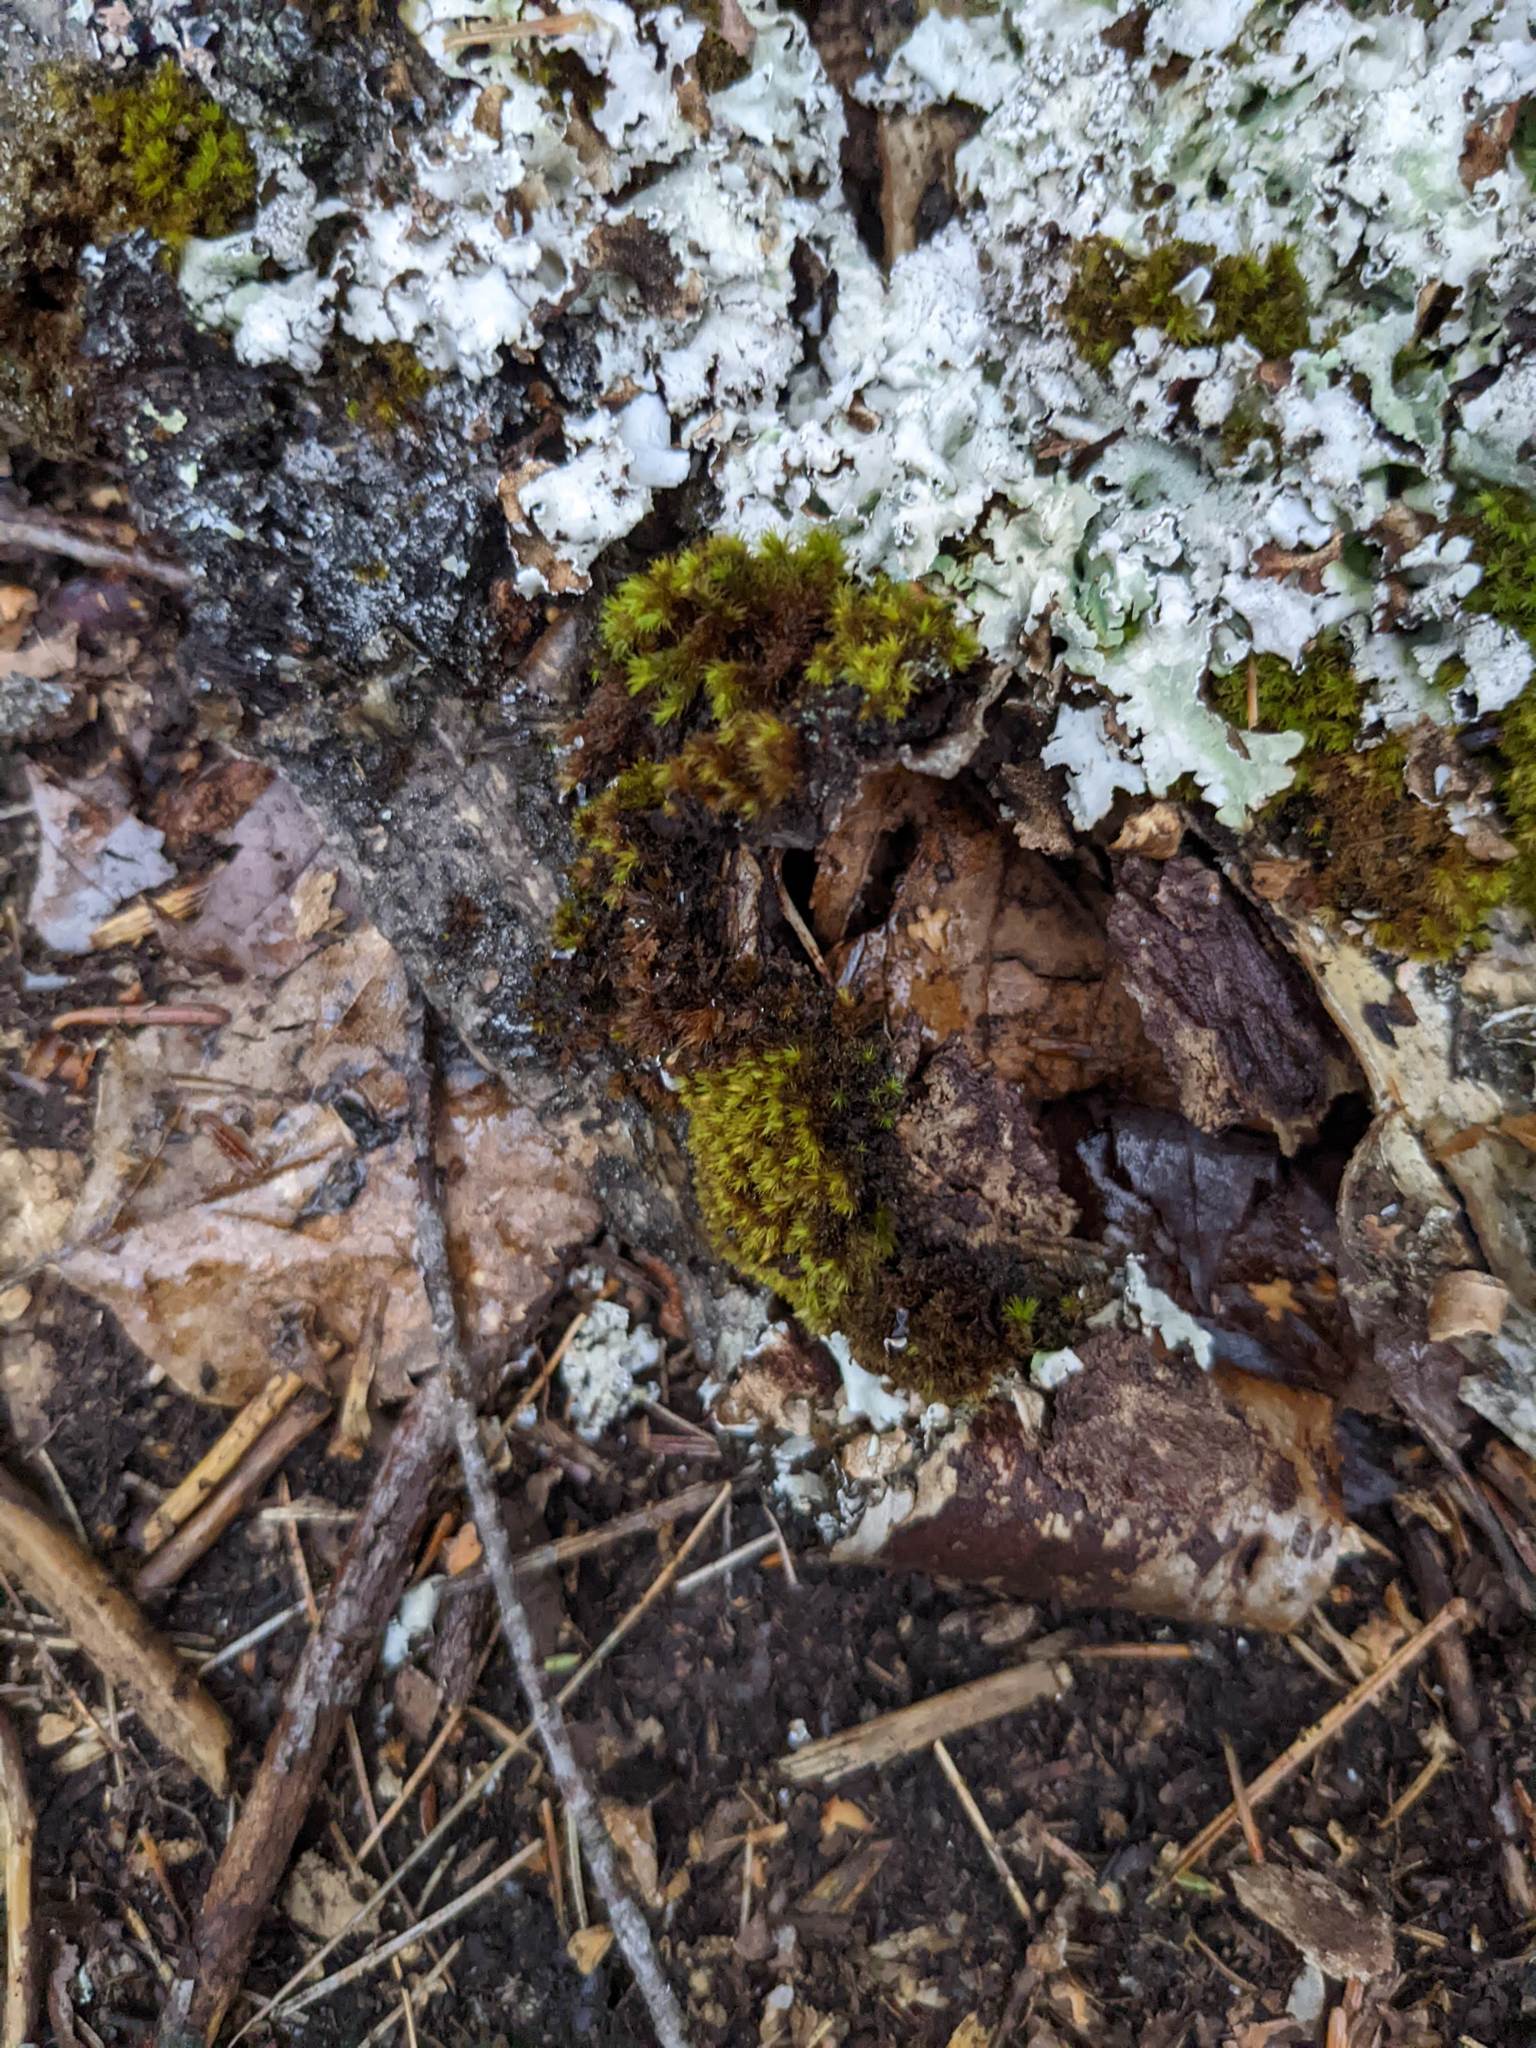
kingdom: Plantae
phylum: Bryophyta
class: Bryopsida
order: Orthotrichales
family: Orthotrichaceae
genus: Ulota
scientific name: Ulota crispa
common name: Crisped pincushion moss
